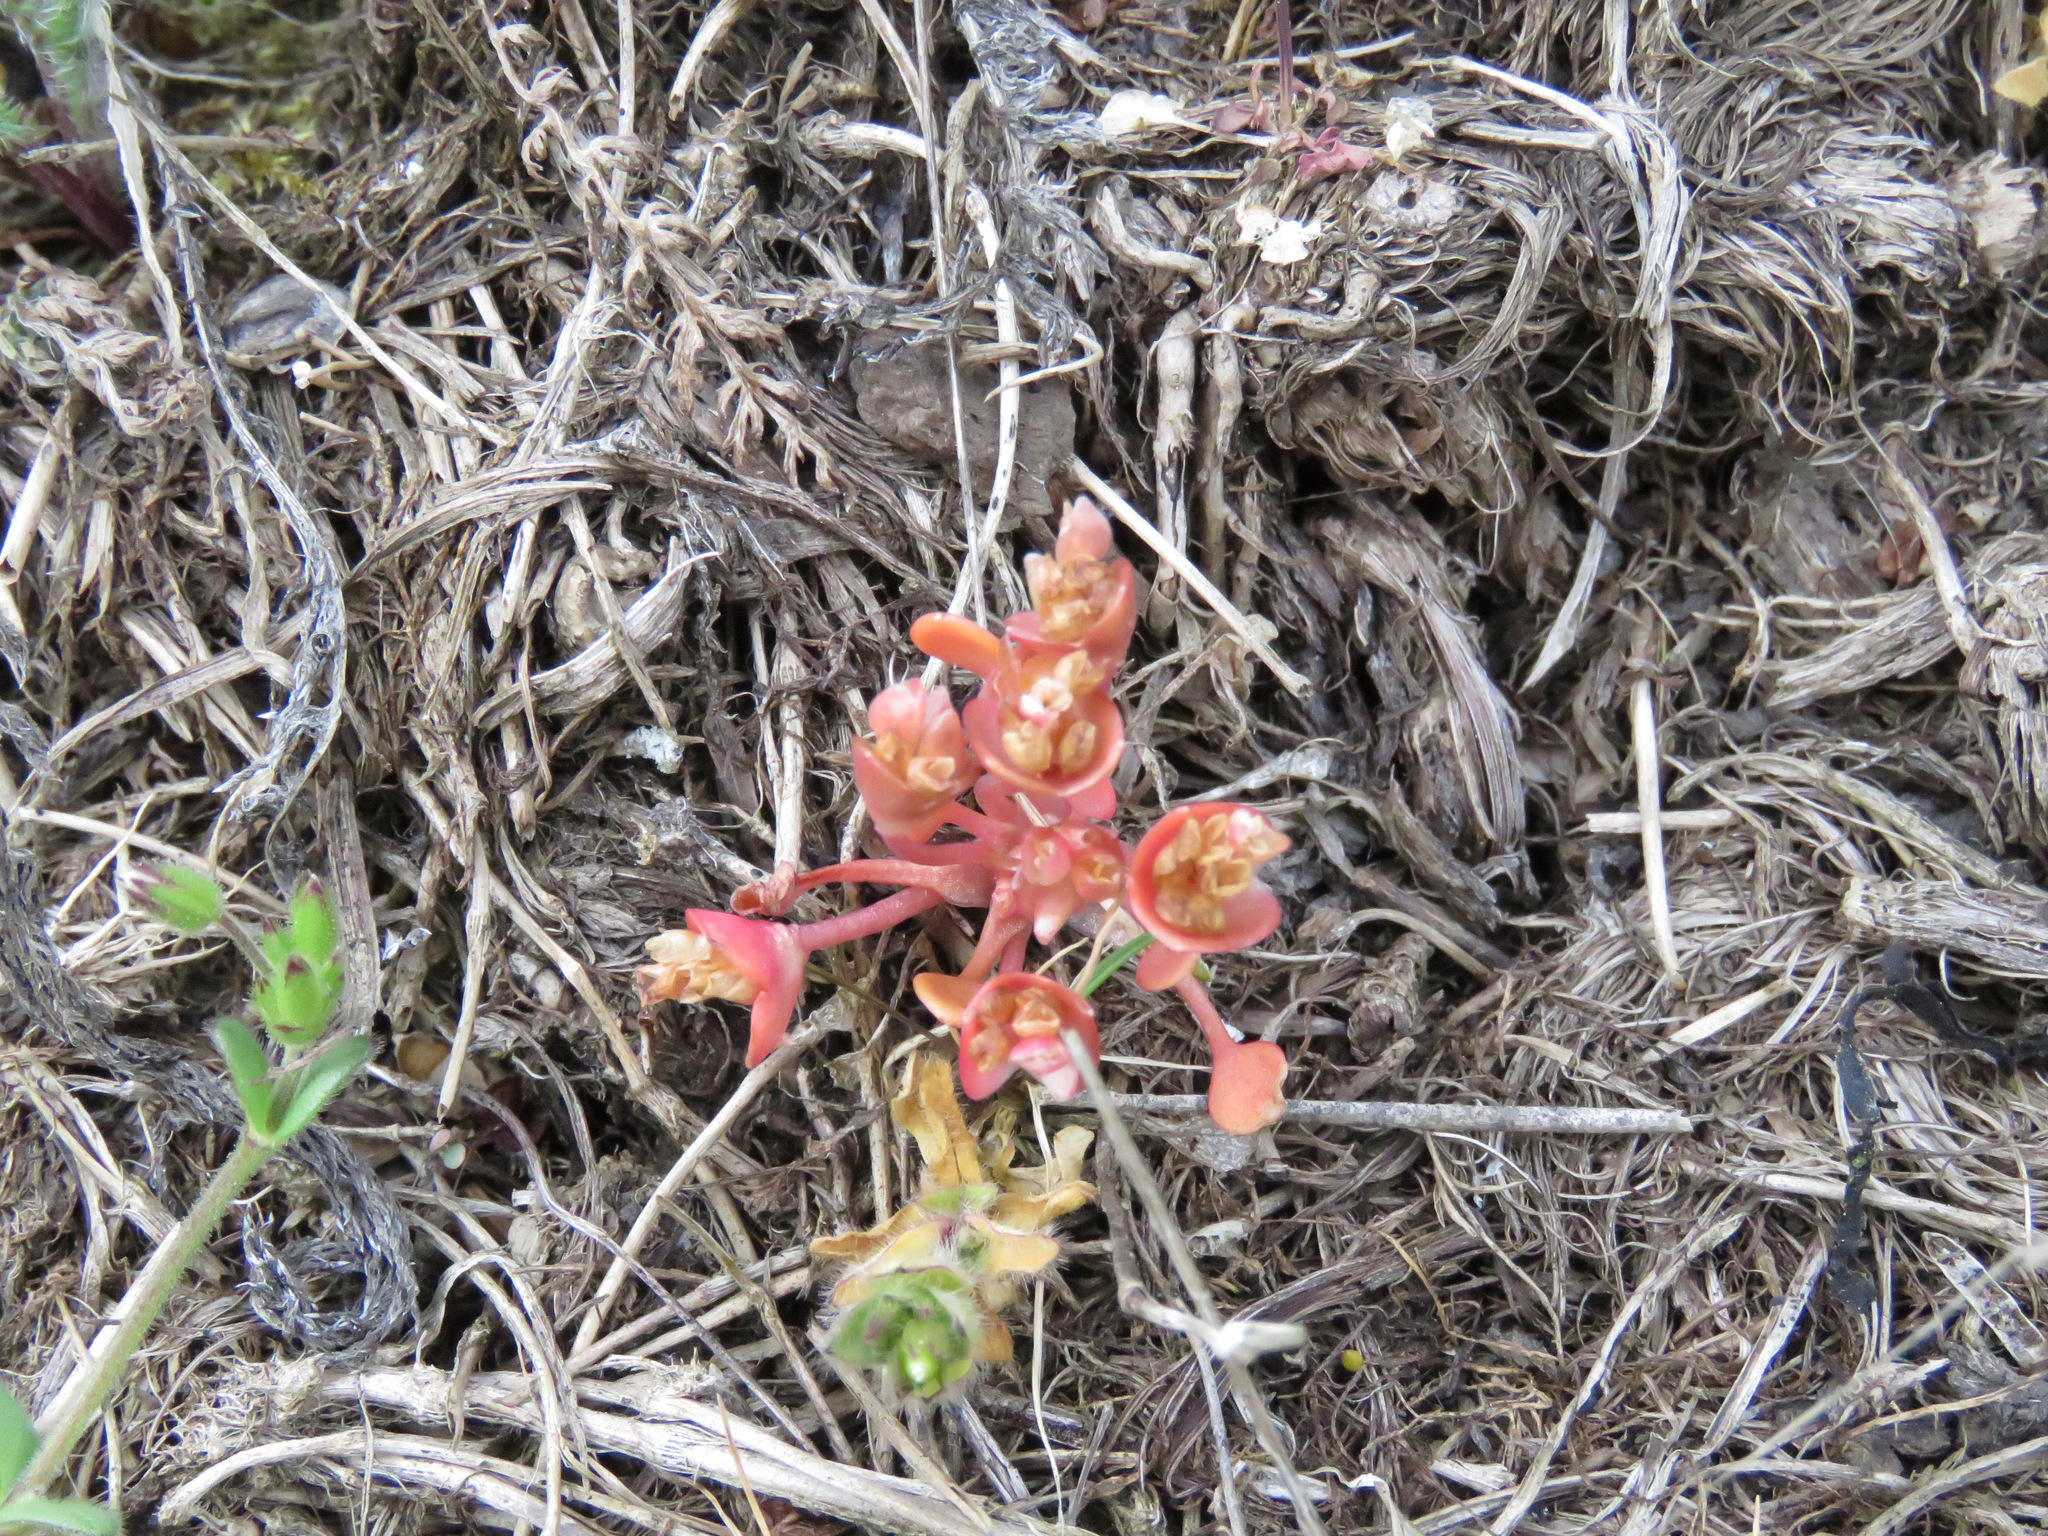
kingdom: Plantae
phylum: Tracheophyta
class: Magnoliopsida
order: Caryophyllales
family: Montiaceae
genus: Claytonia
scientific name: Claytonia rubra
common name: Erubescent miner's-lettuce
